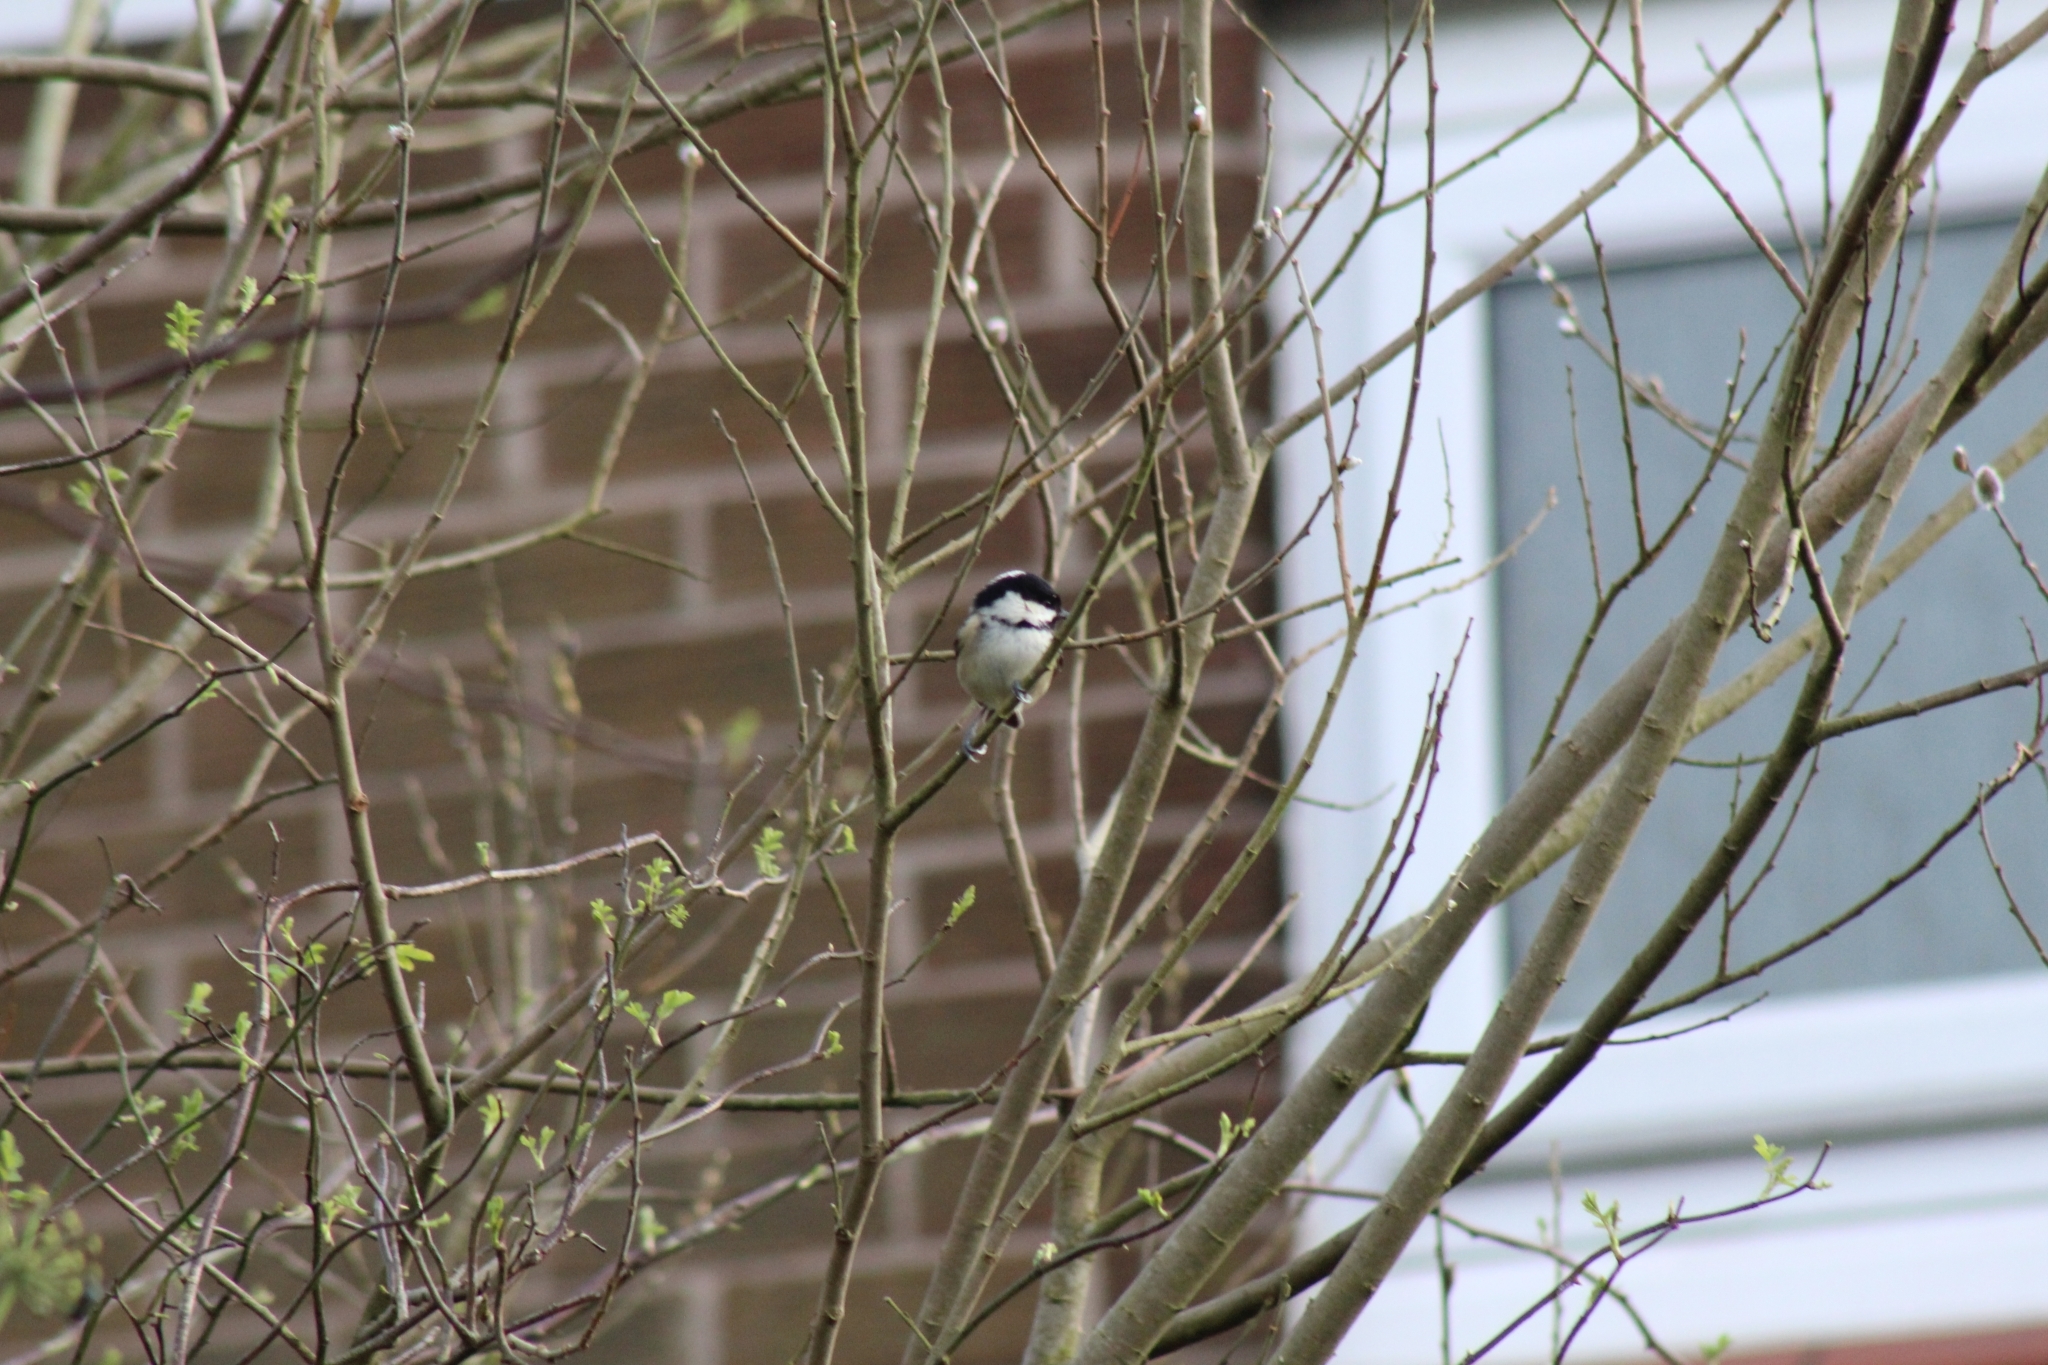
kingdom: Animalia
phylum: Chordata
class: Aves
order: Passeriformes
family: Paridae
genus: Periparus
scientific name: Periparus ater
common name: Coal tit
